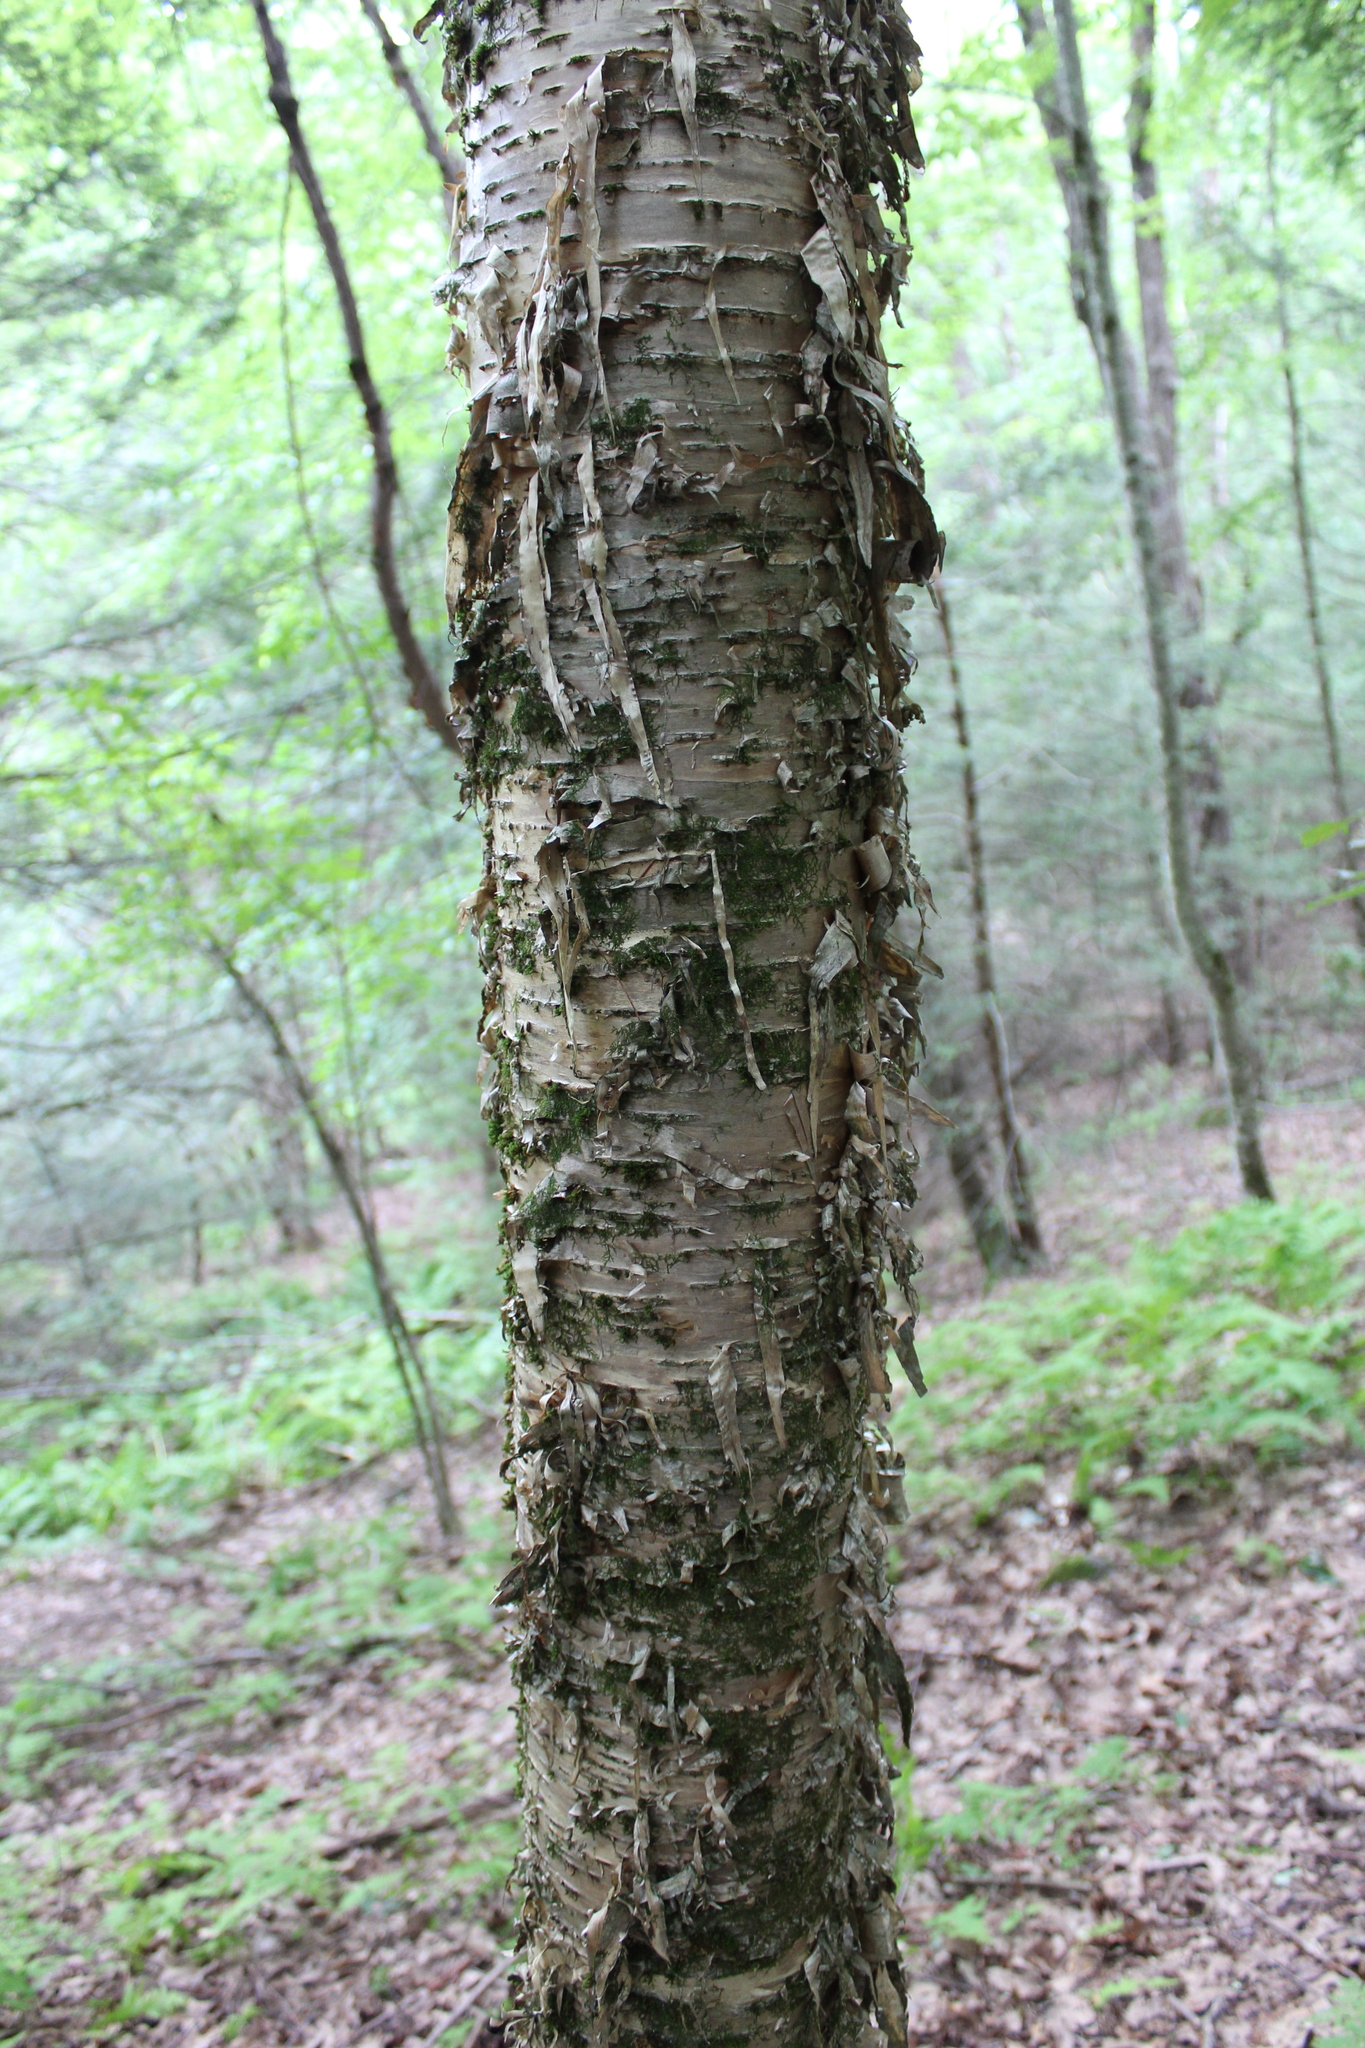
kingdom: Plantae
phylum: Tracheophyta
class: Magnoliopsida
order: Fagales
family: Betulaceae
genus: Betula
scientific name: Betula alleghaniensis
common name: Yellow birch
